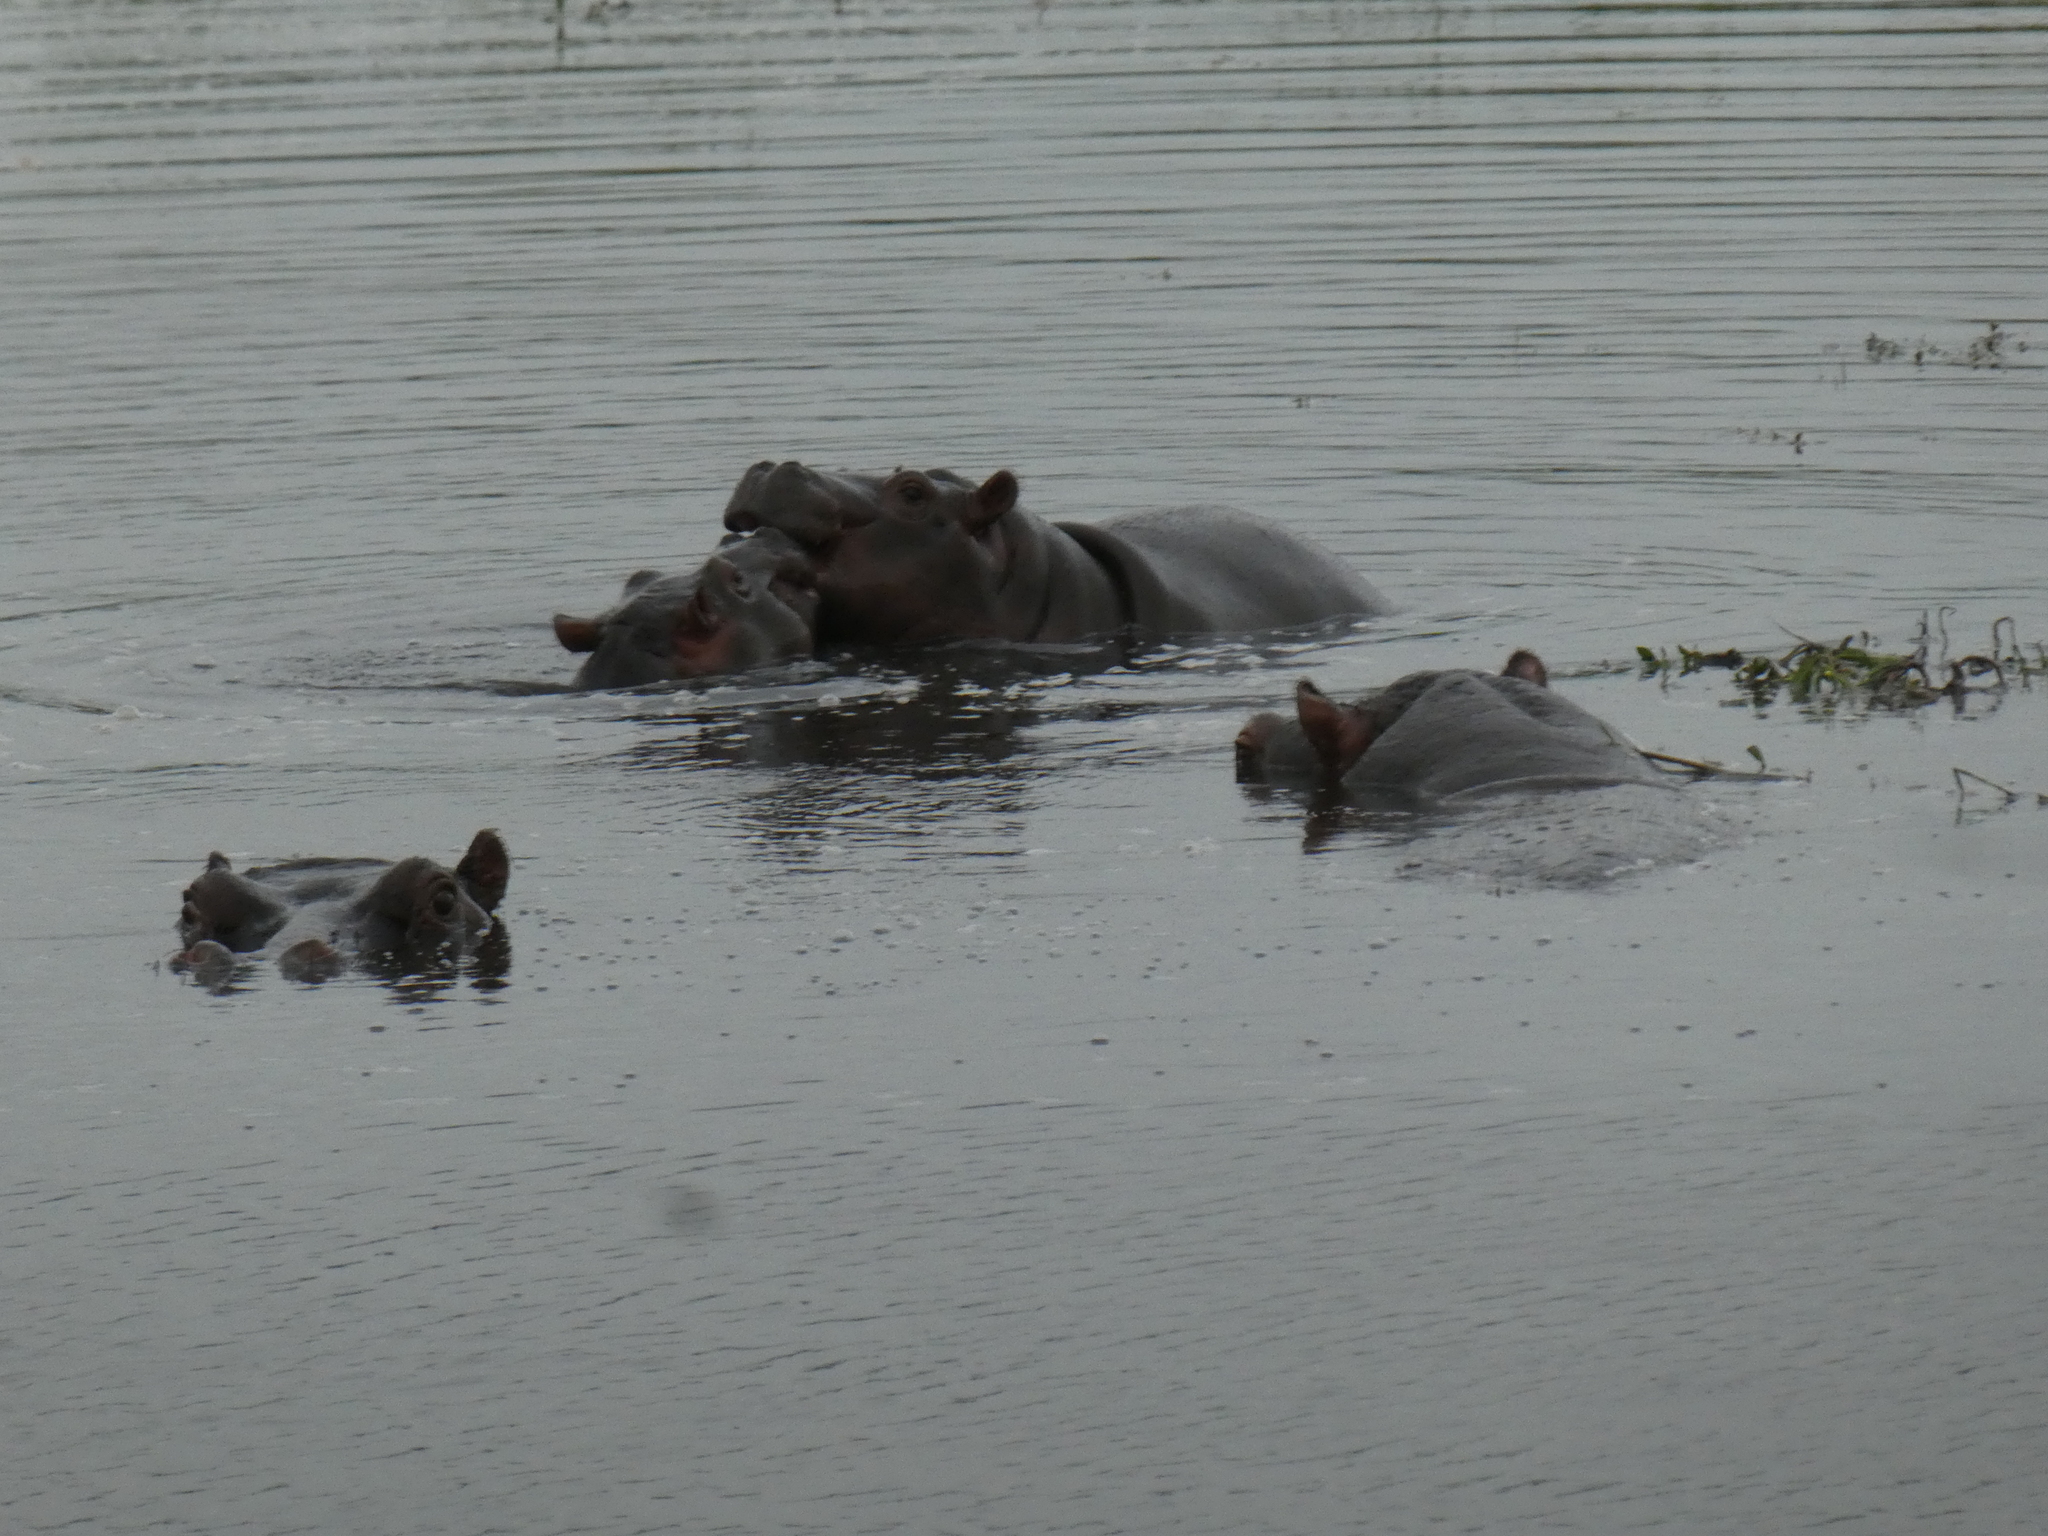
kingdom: Animalia
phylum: Chordata
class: Mammalia
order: Artiodactyla
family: Hippopotamidae
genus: Hippopotamus
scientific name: Hippopotamus amphibius
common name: Common hippopotamus
